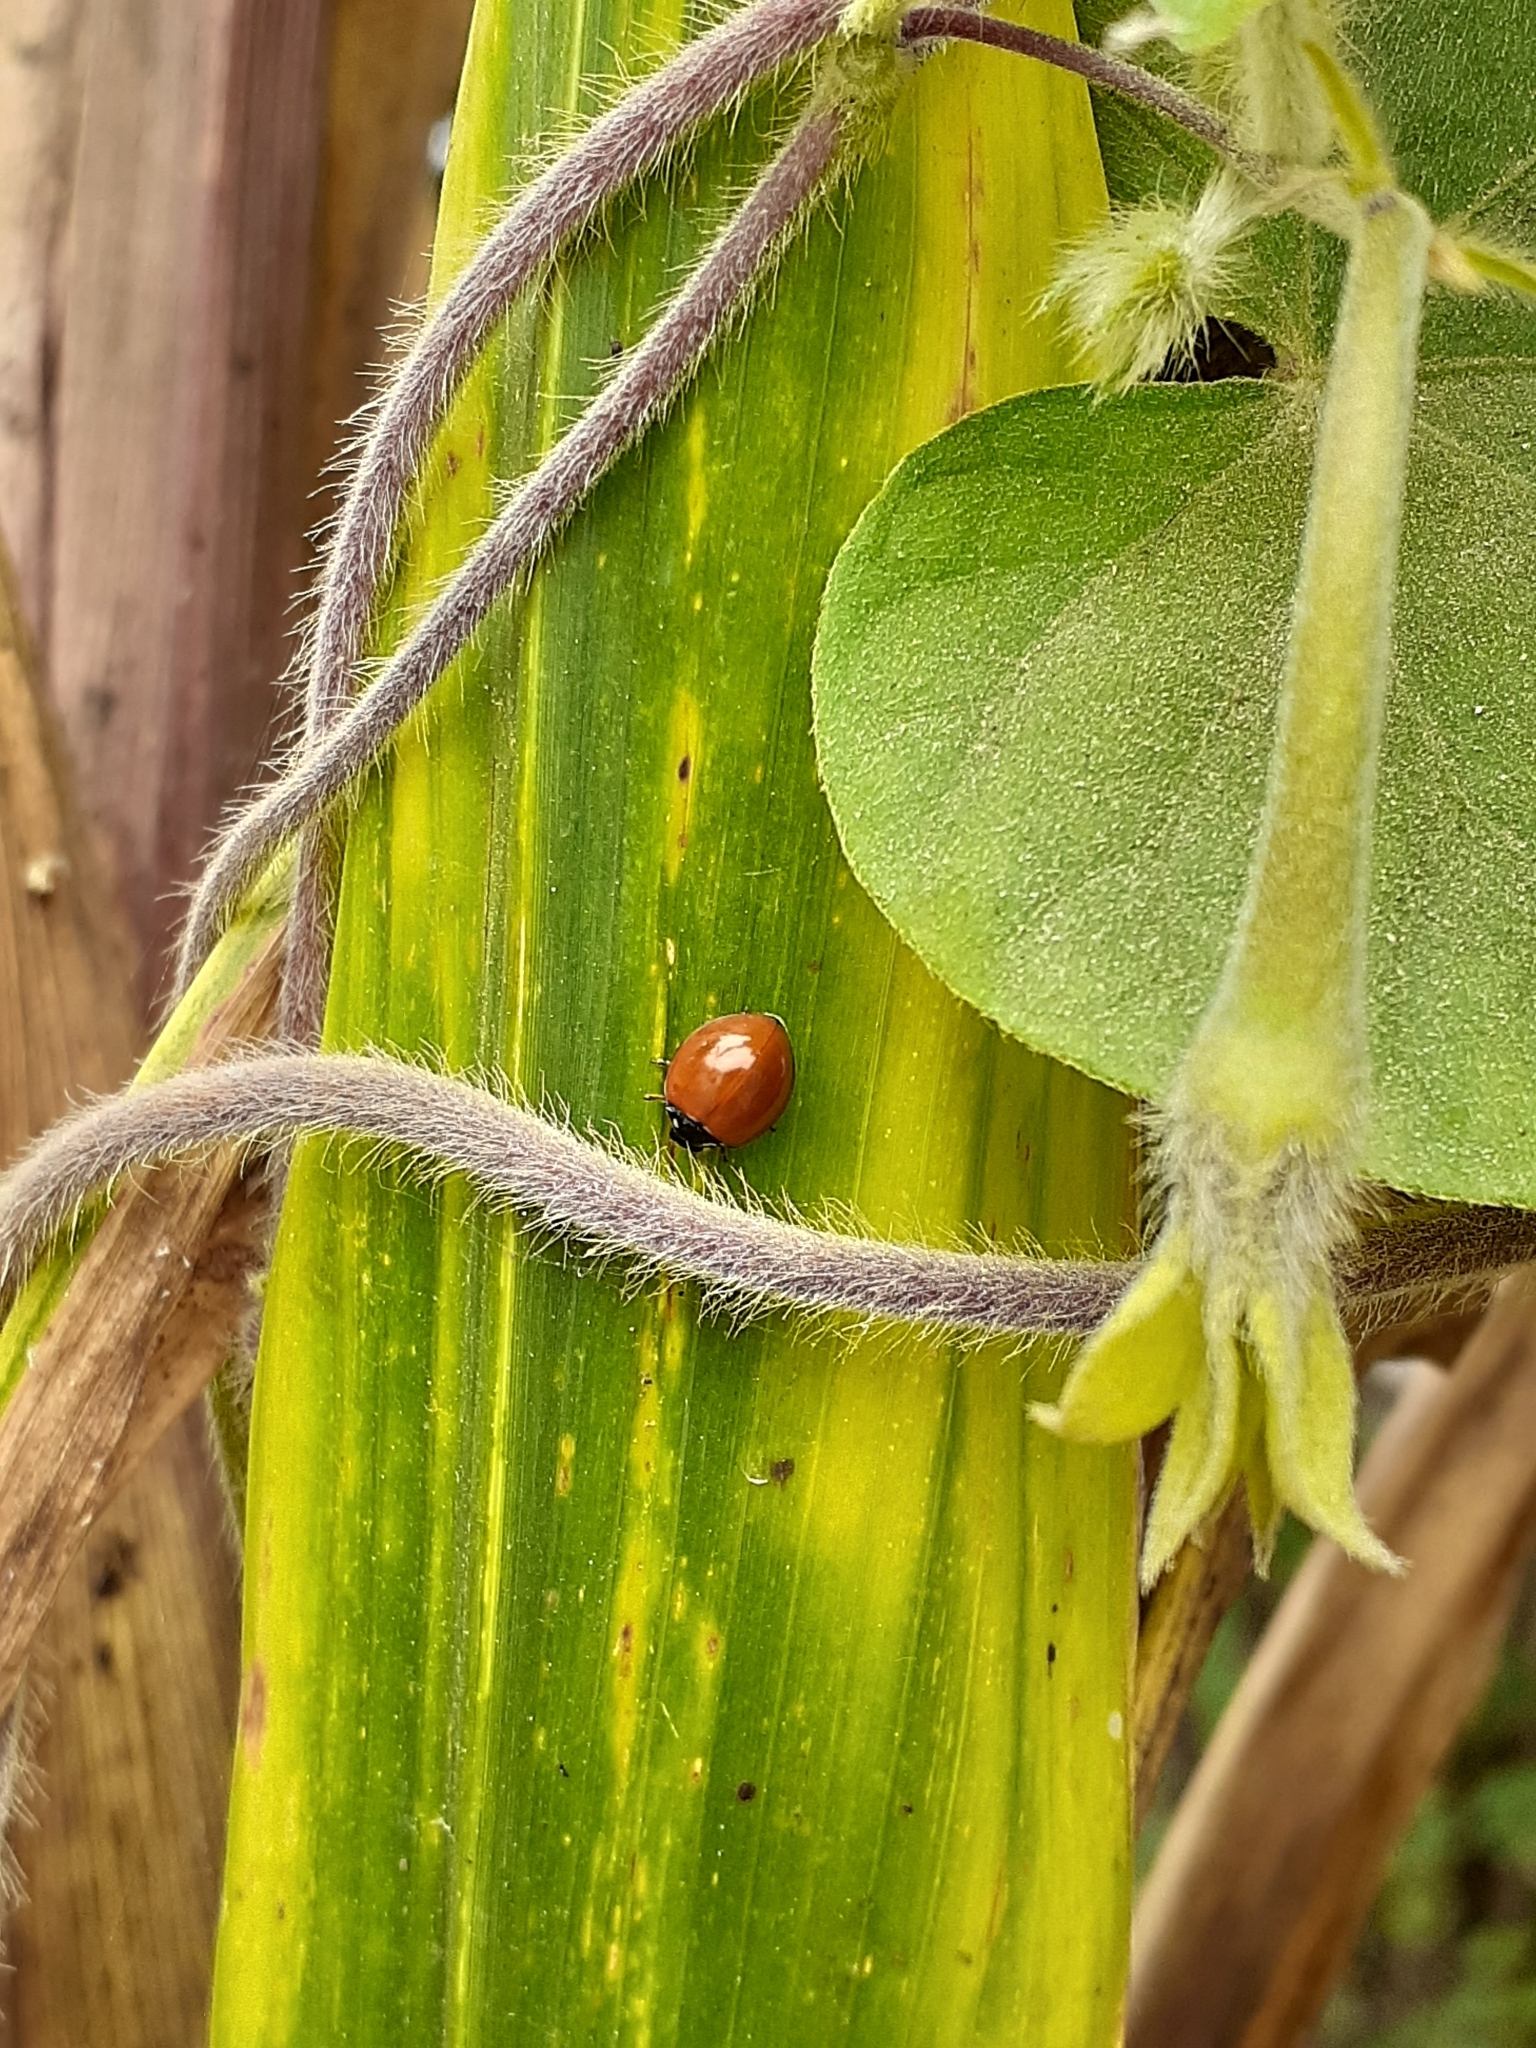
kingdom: Animalia
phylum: Arthropoda
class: Insecta
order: Coleoptera
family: Coccinellidae
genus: Cycloneda
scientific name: Cycloneda sanguinea
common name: Ladybird beetle
